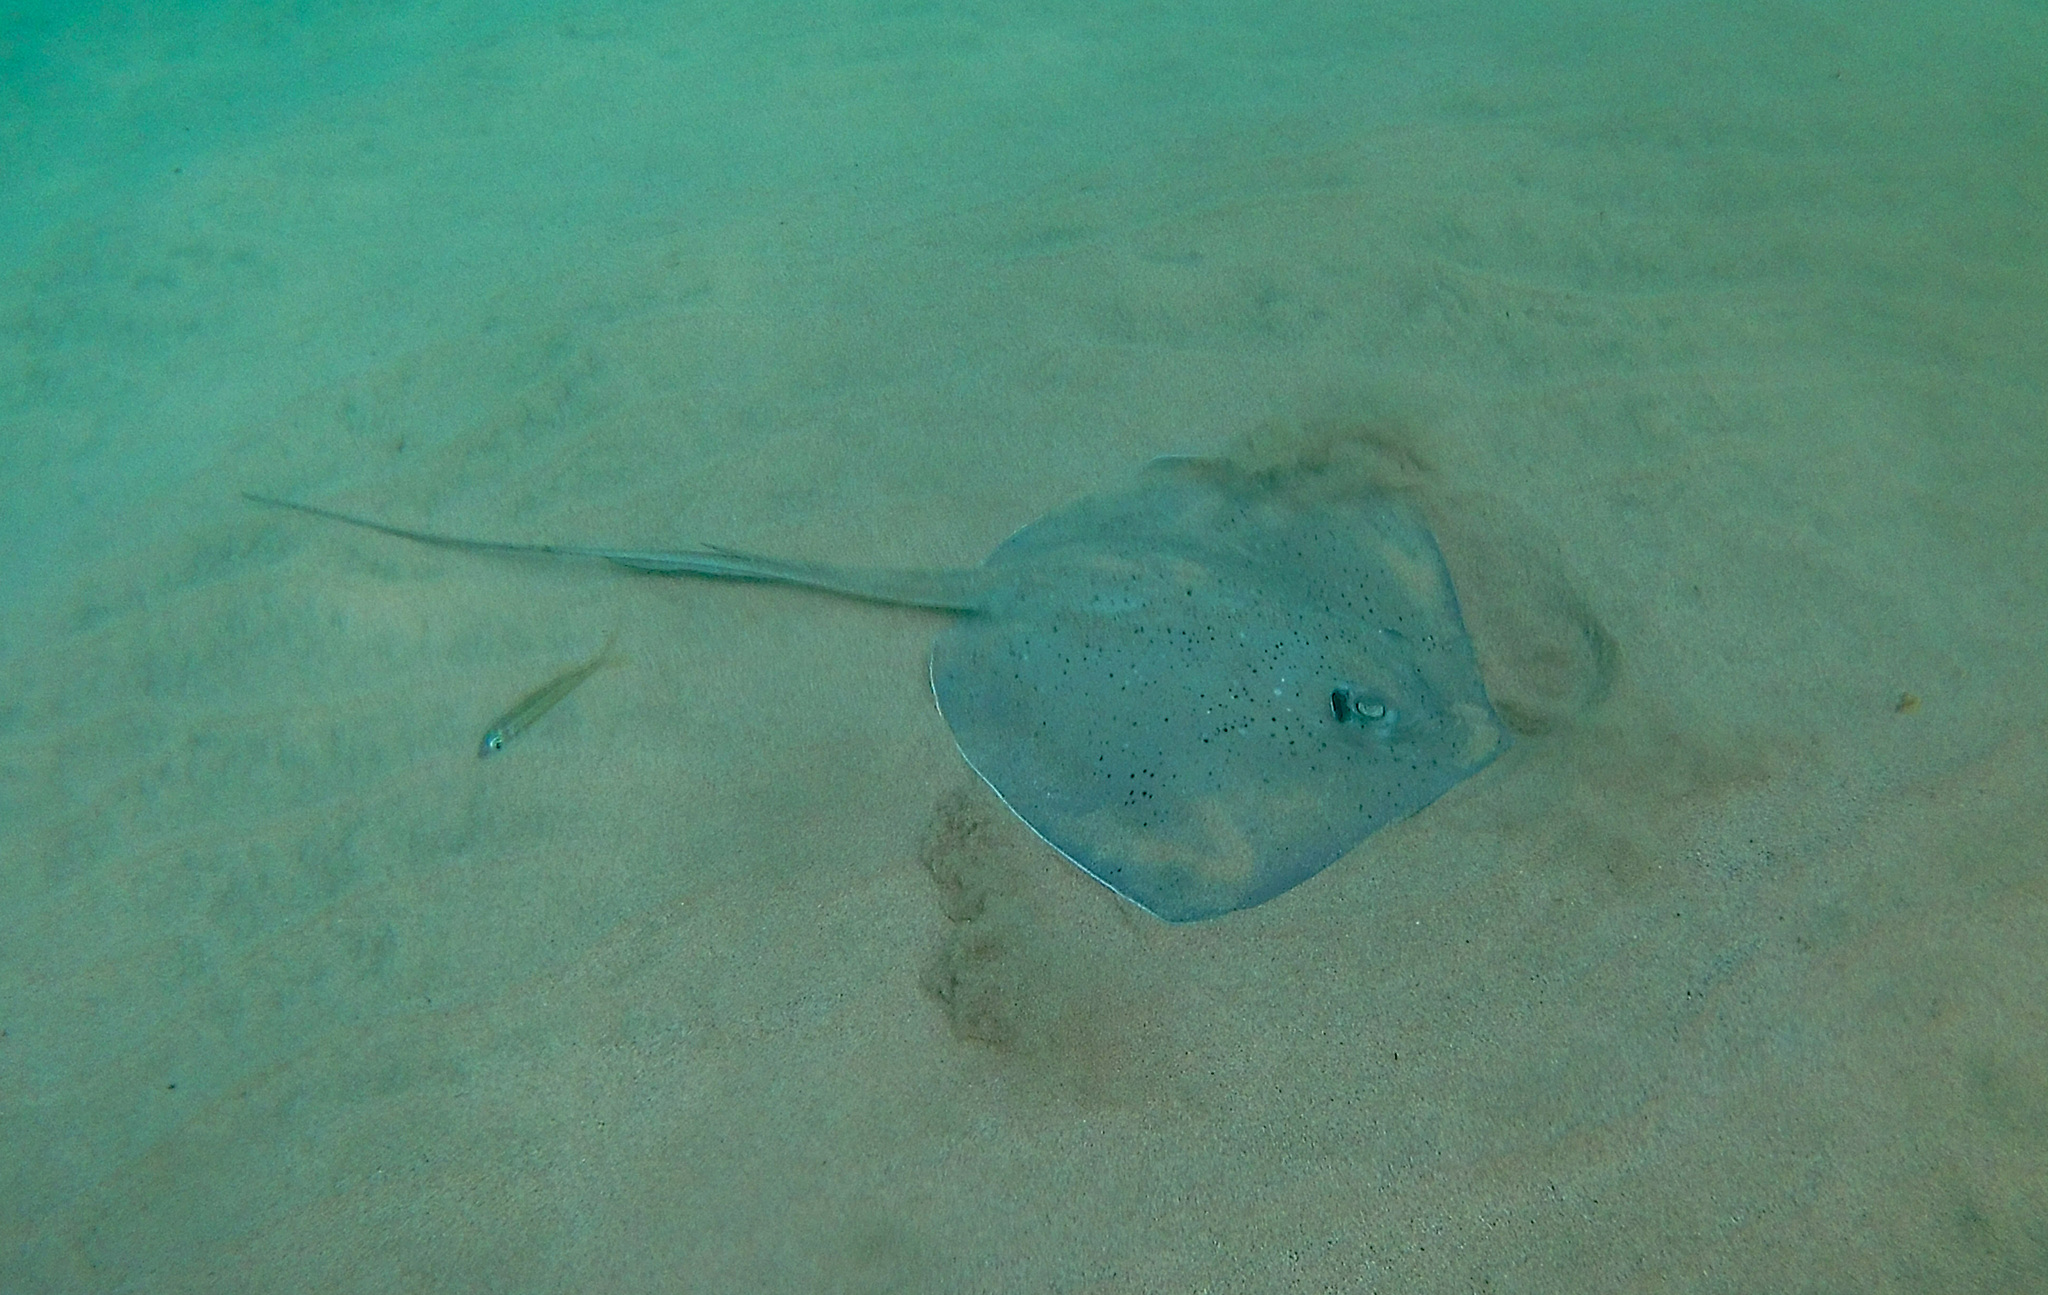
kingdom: Animalia
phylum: Chordata
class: Elasmobranchii
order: Myliobatiformes
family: Dasyatidae
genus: Hypanus
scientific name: Hypanus berthalutzae
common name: Lutz's stingray
